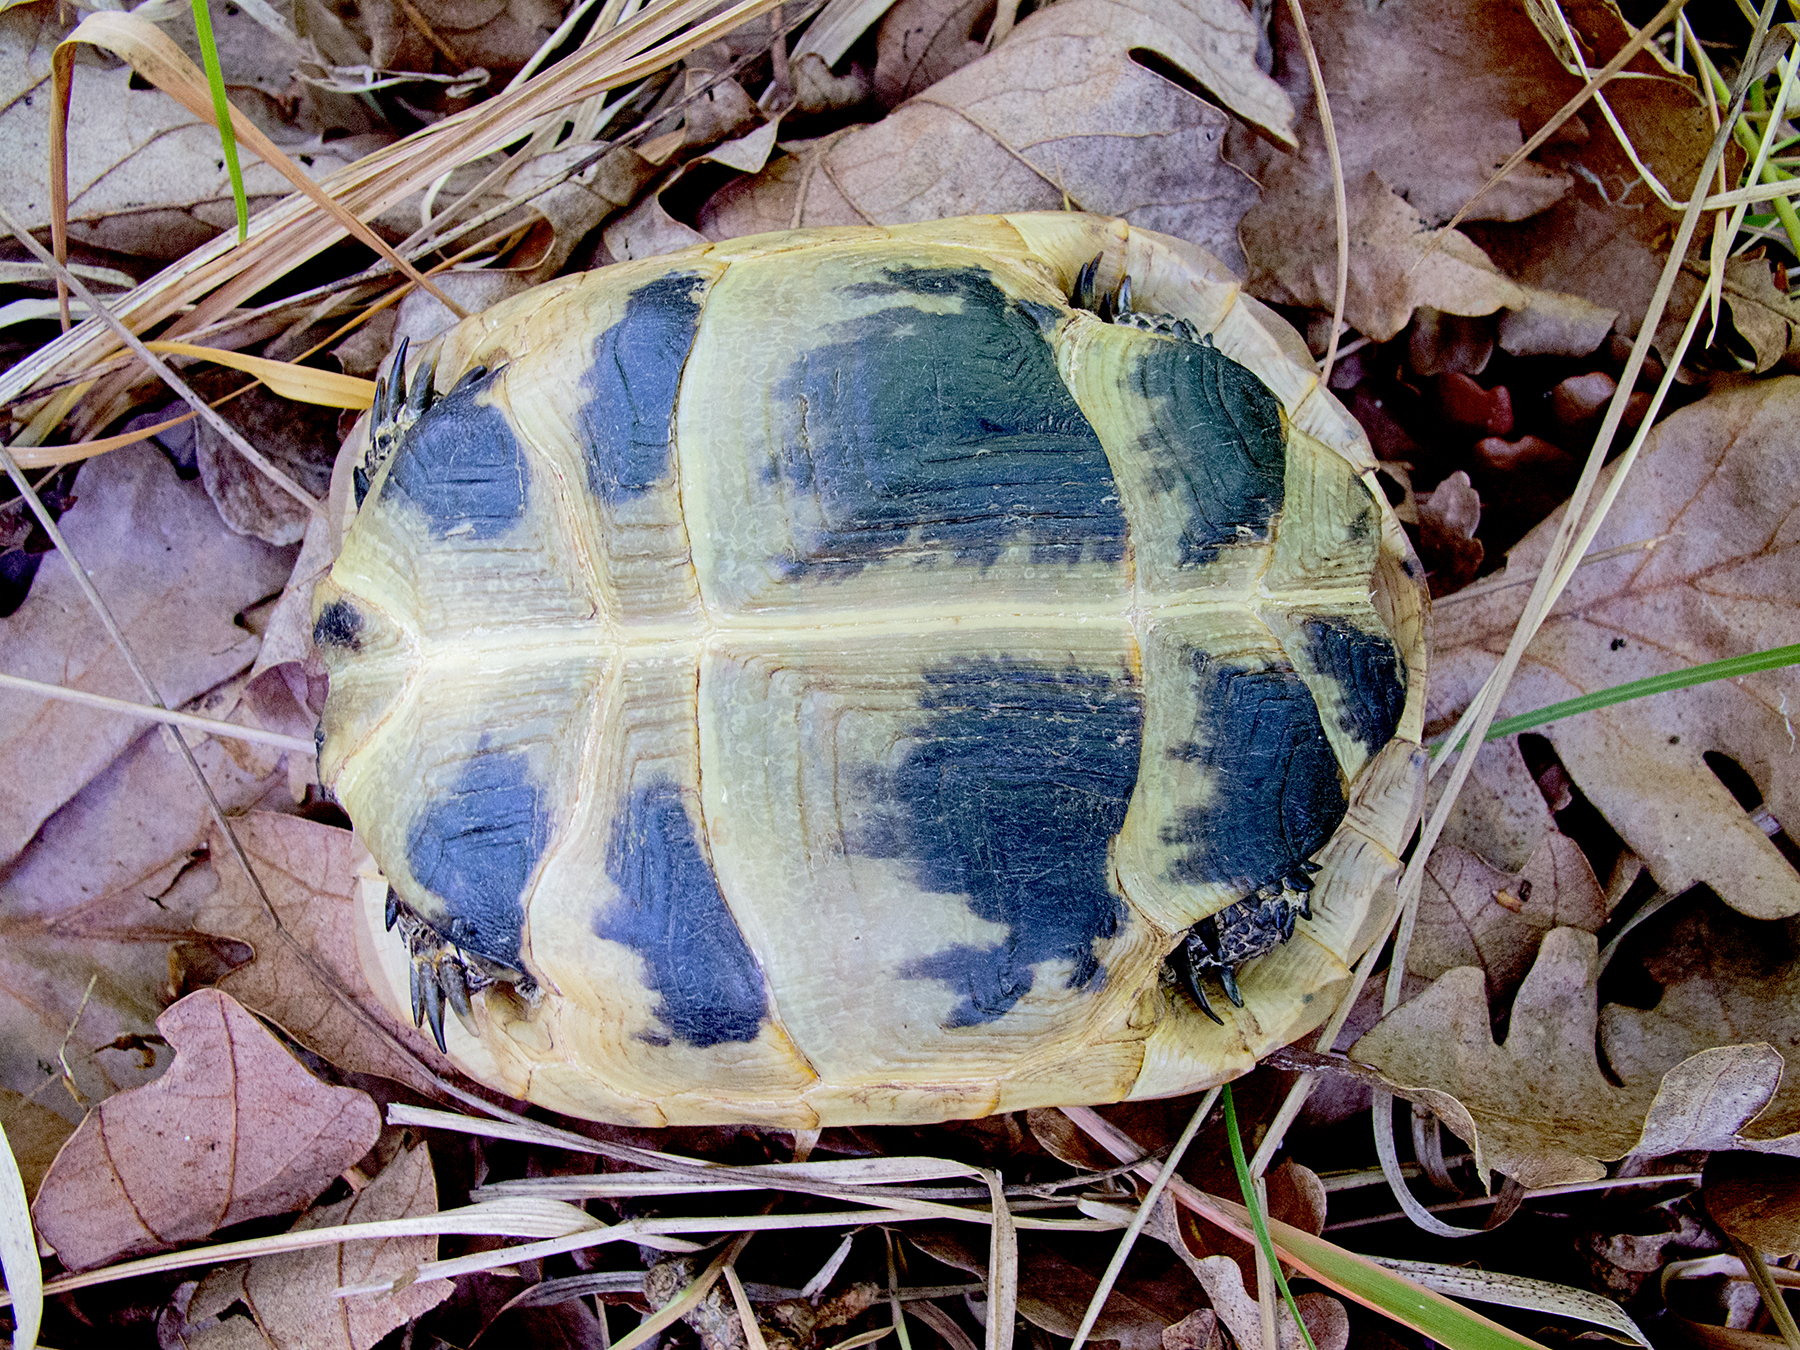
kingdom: Animalia
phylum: Chordata
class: Testudines
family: Testudinidae
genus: Testudo
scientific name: Testudo graeca
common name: Common tortoise
